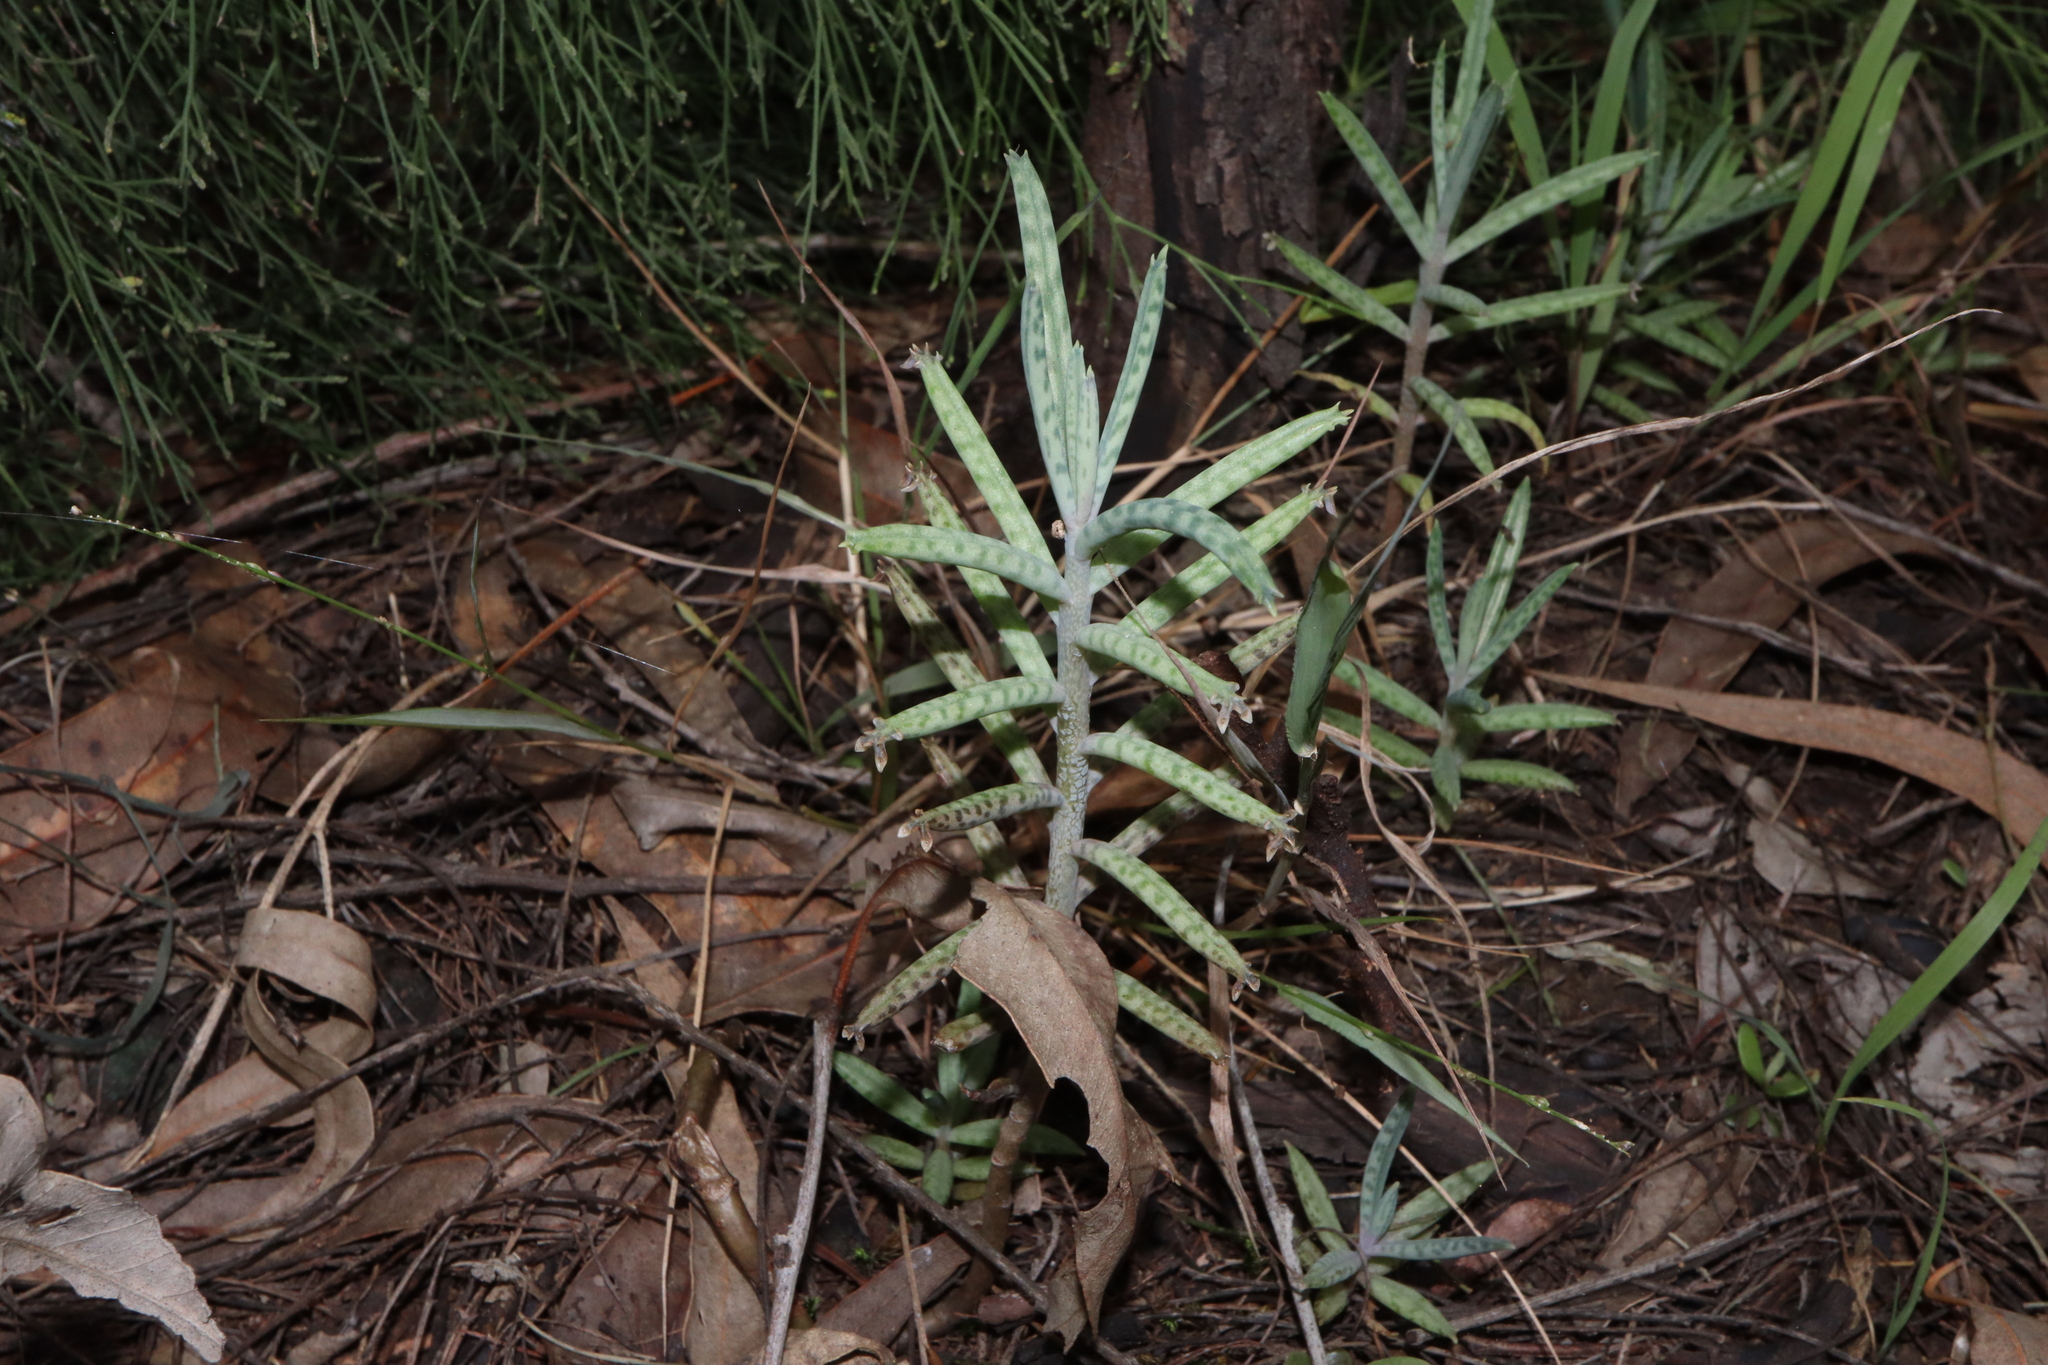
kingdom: Plantae
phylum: Tracheophyta
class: Magnoliopsida
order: Saxifragales
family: Crassulaceae
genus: Kalanchoe
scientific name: Kalanchoe delagoensis
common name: Chandelier plant
